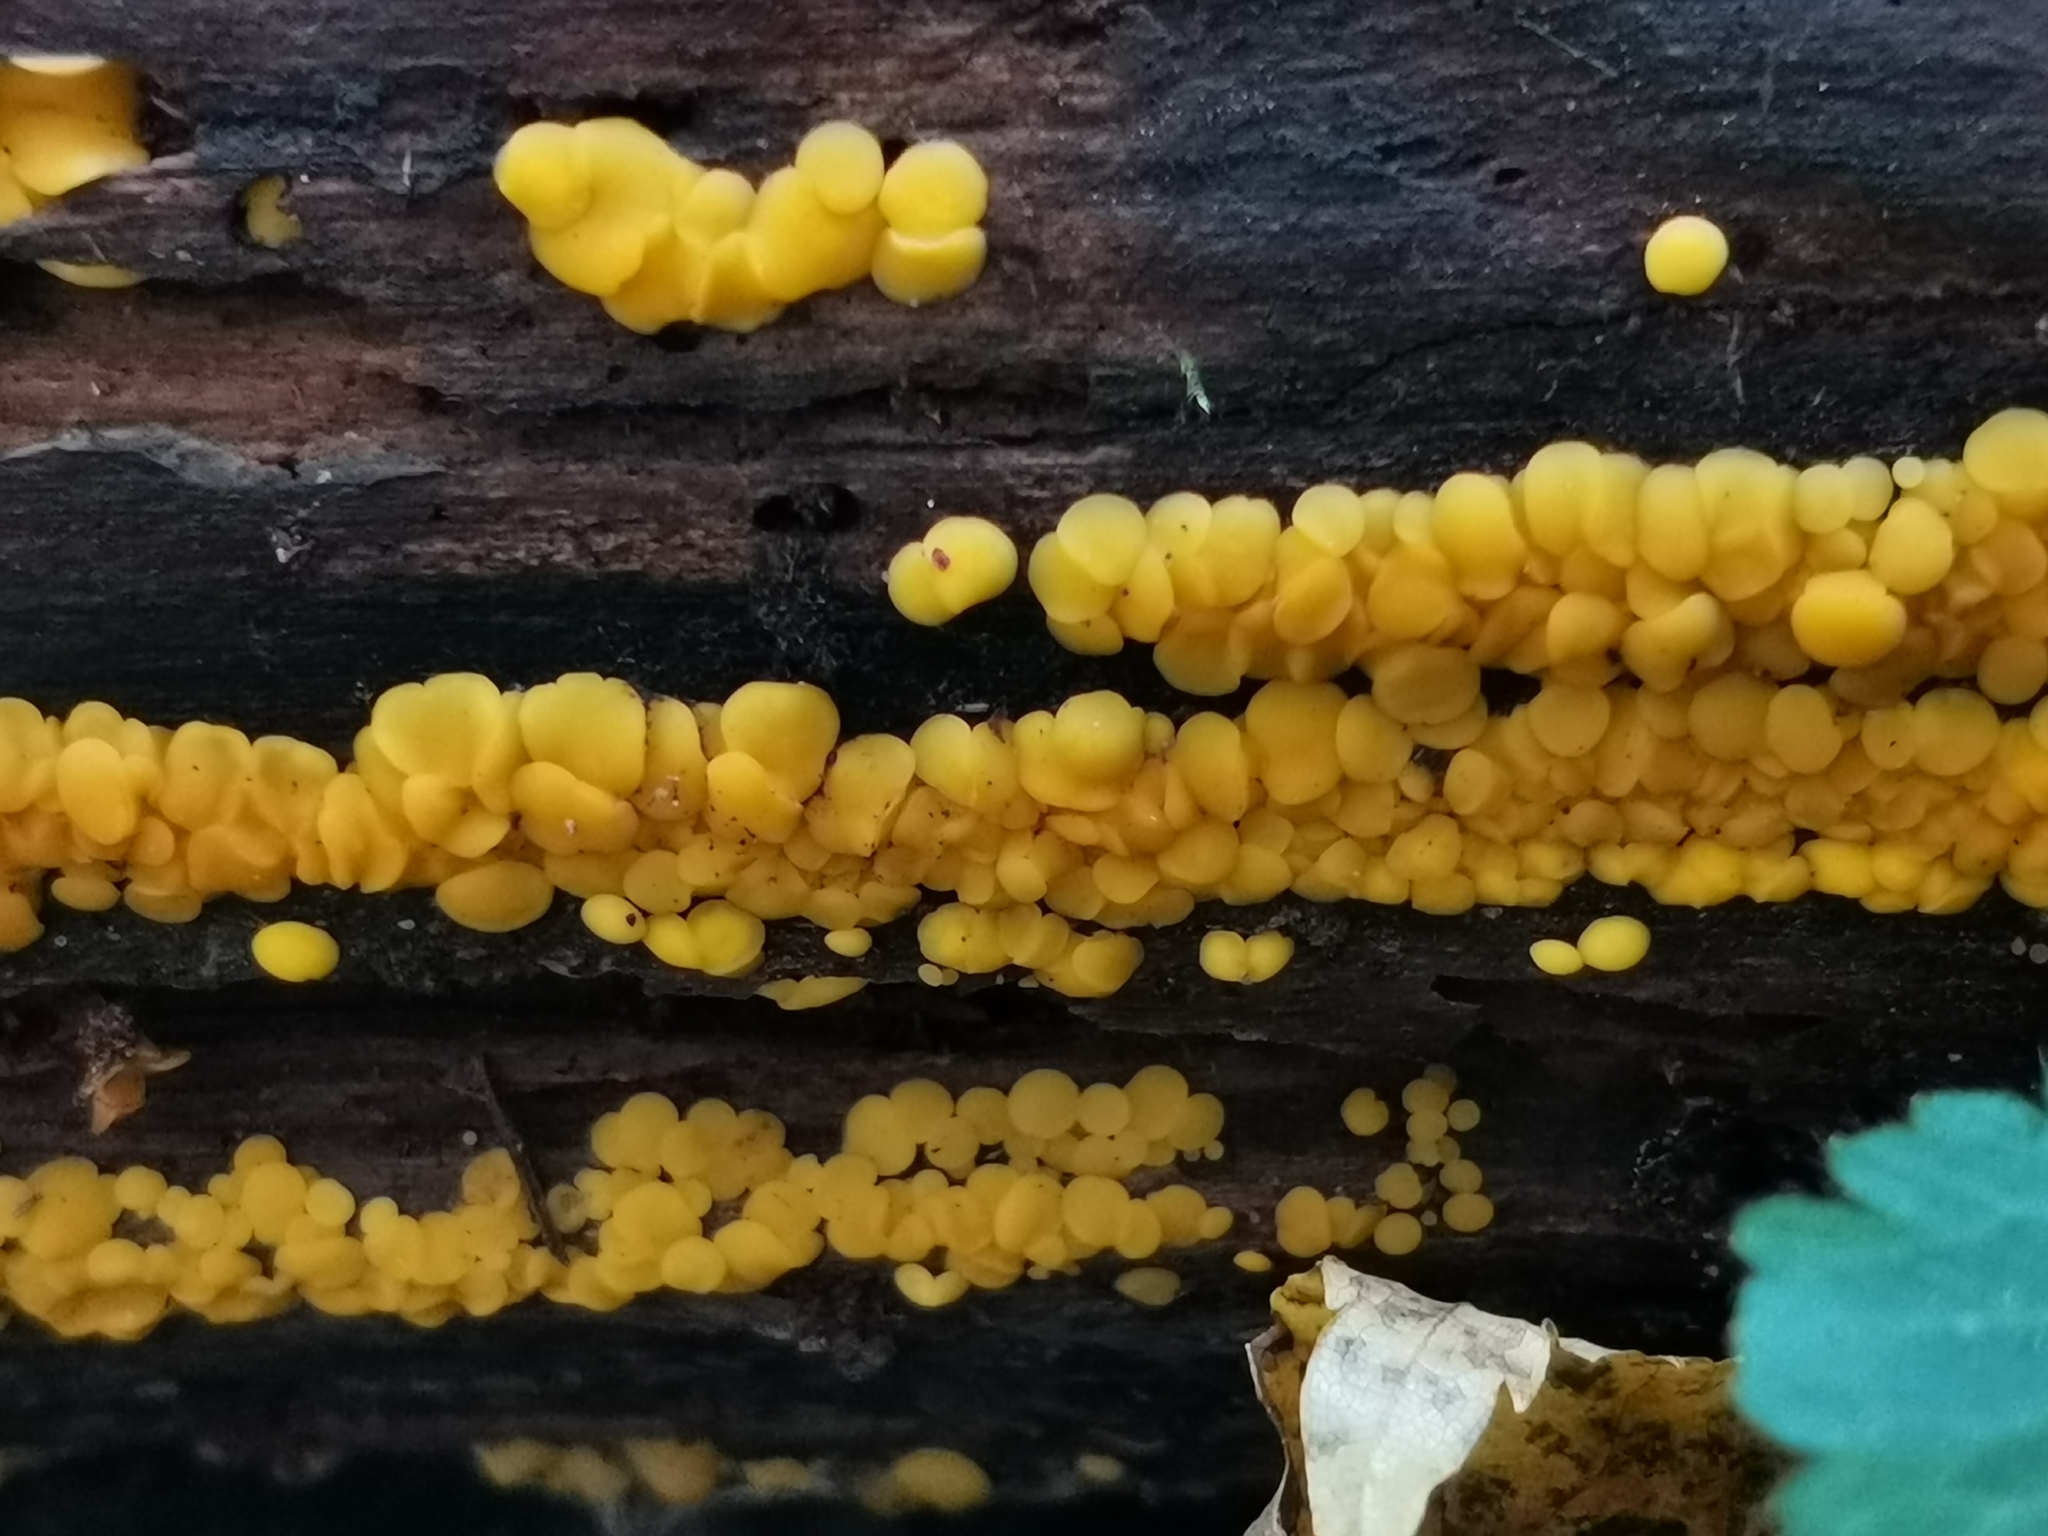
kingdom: Fungi
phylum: Ascomycota
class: Leotiomycetes
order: Helotiales
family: Pezizellaceae
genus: Calycina
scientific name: Calycina citrina
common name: Yellow fairy cups
